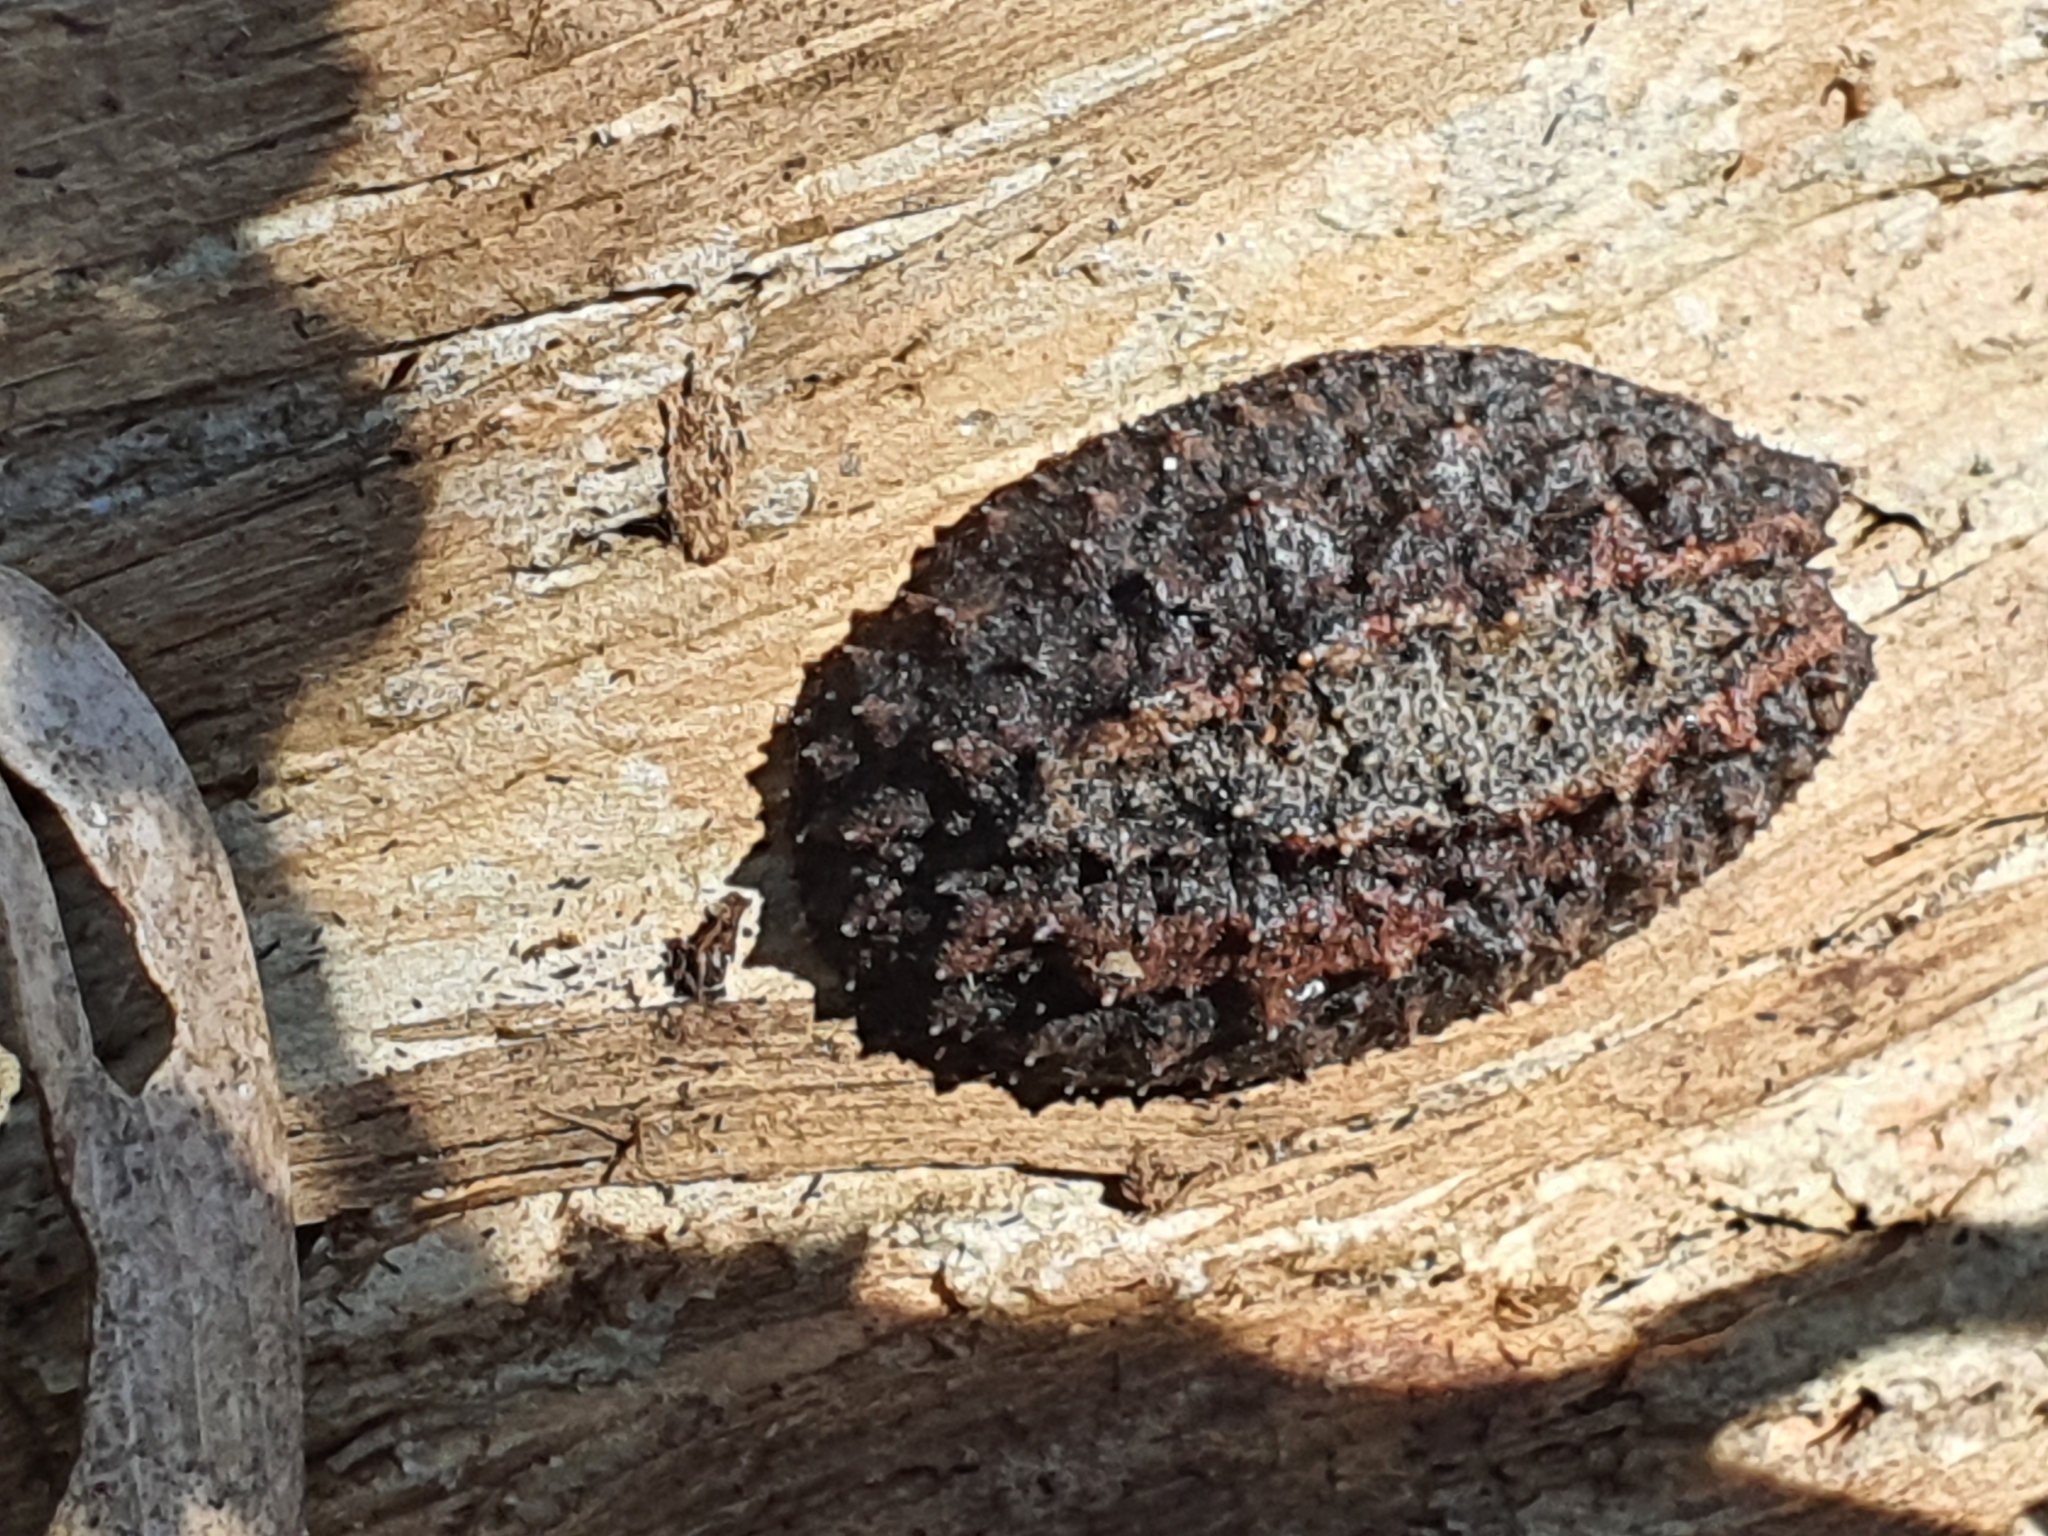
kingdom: Animalia
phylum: Mollusca
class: Gastropoda
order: Systellommatophora
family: Onchidiidae
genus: Onchidina
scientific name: Onchidina australis
